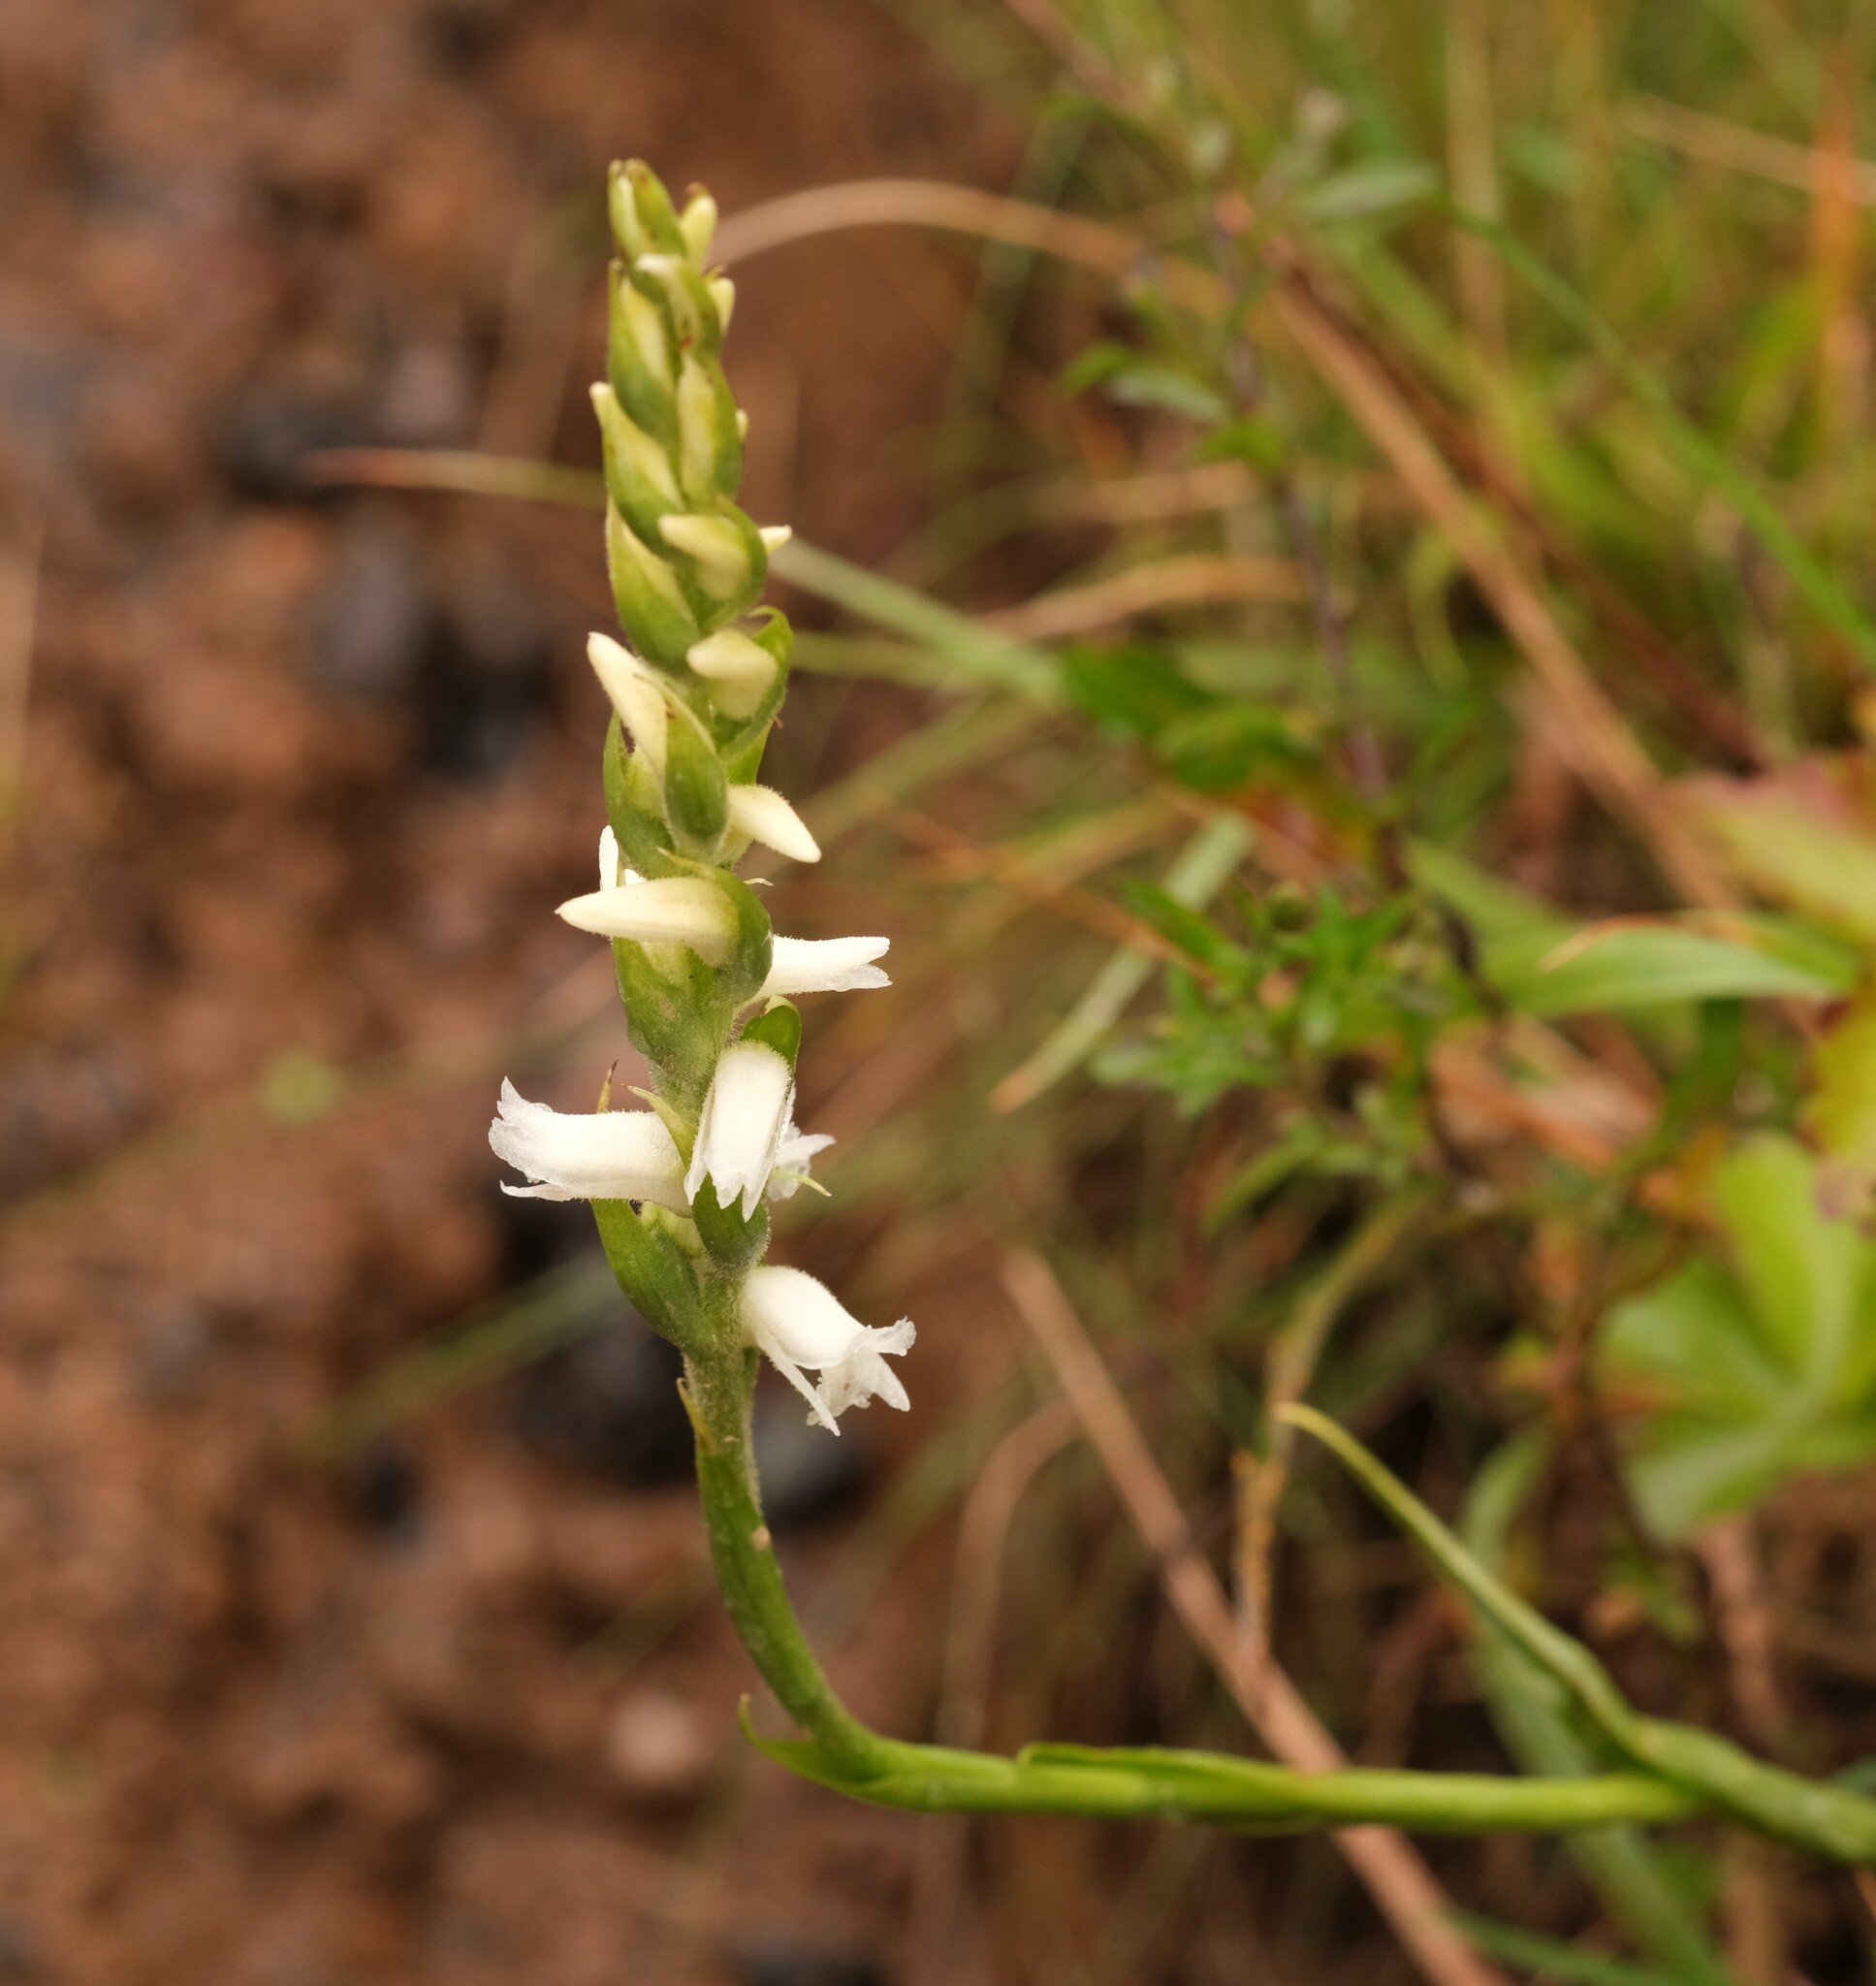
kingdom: Plantae
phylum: Tracheophyta
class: Liliopsida
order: Asparagales
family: Orchidaceae
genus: Spiranthes
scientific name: Spiranthes arcisepala
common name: Appalachian ladies'-tresses
